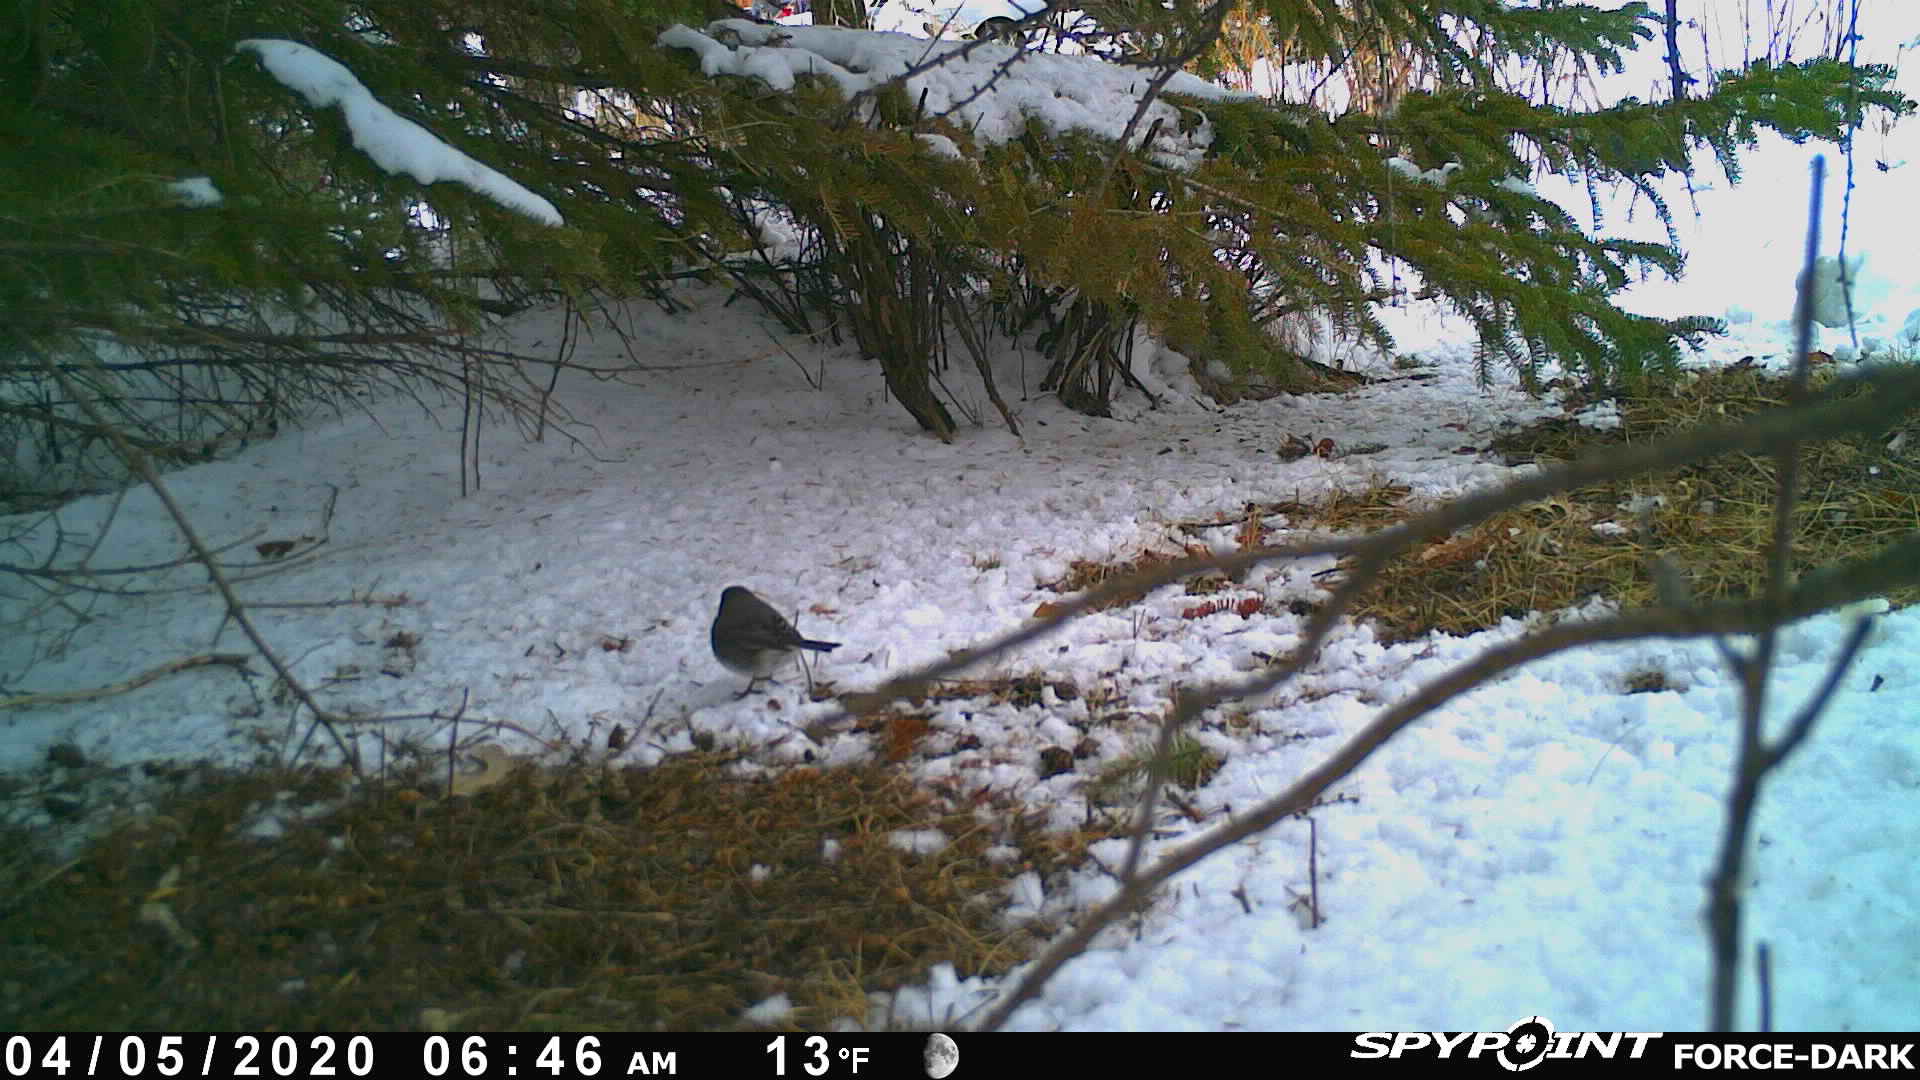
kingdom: Animalia
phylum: Chordata
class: Aves
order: Passeriformes
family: Passerellidae
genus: Junco
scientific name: Junco hyemalis
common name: Dark-eyed junco
